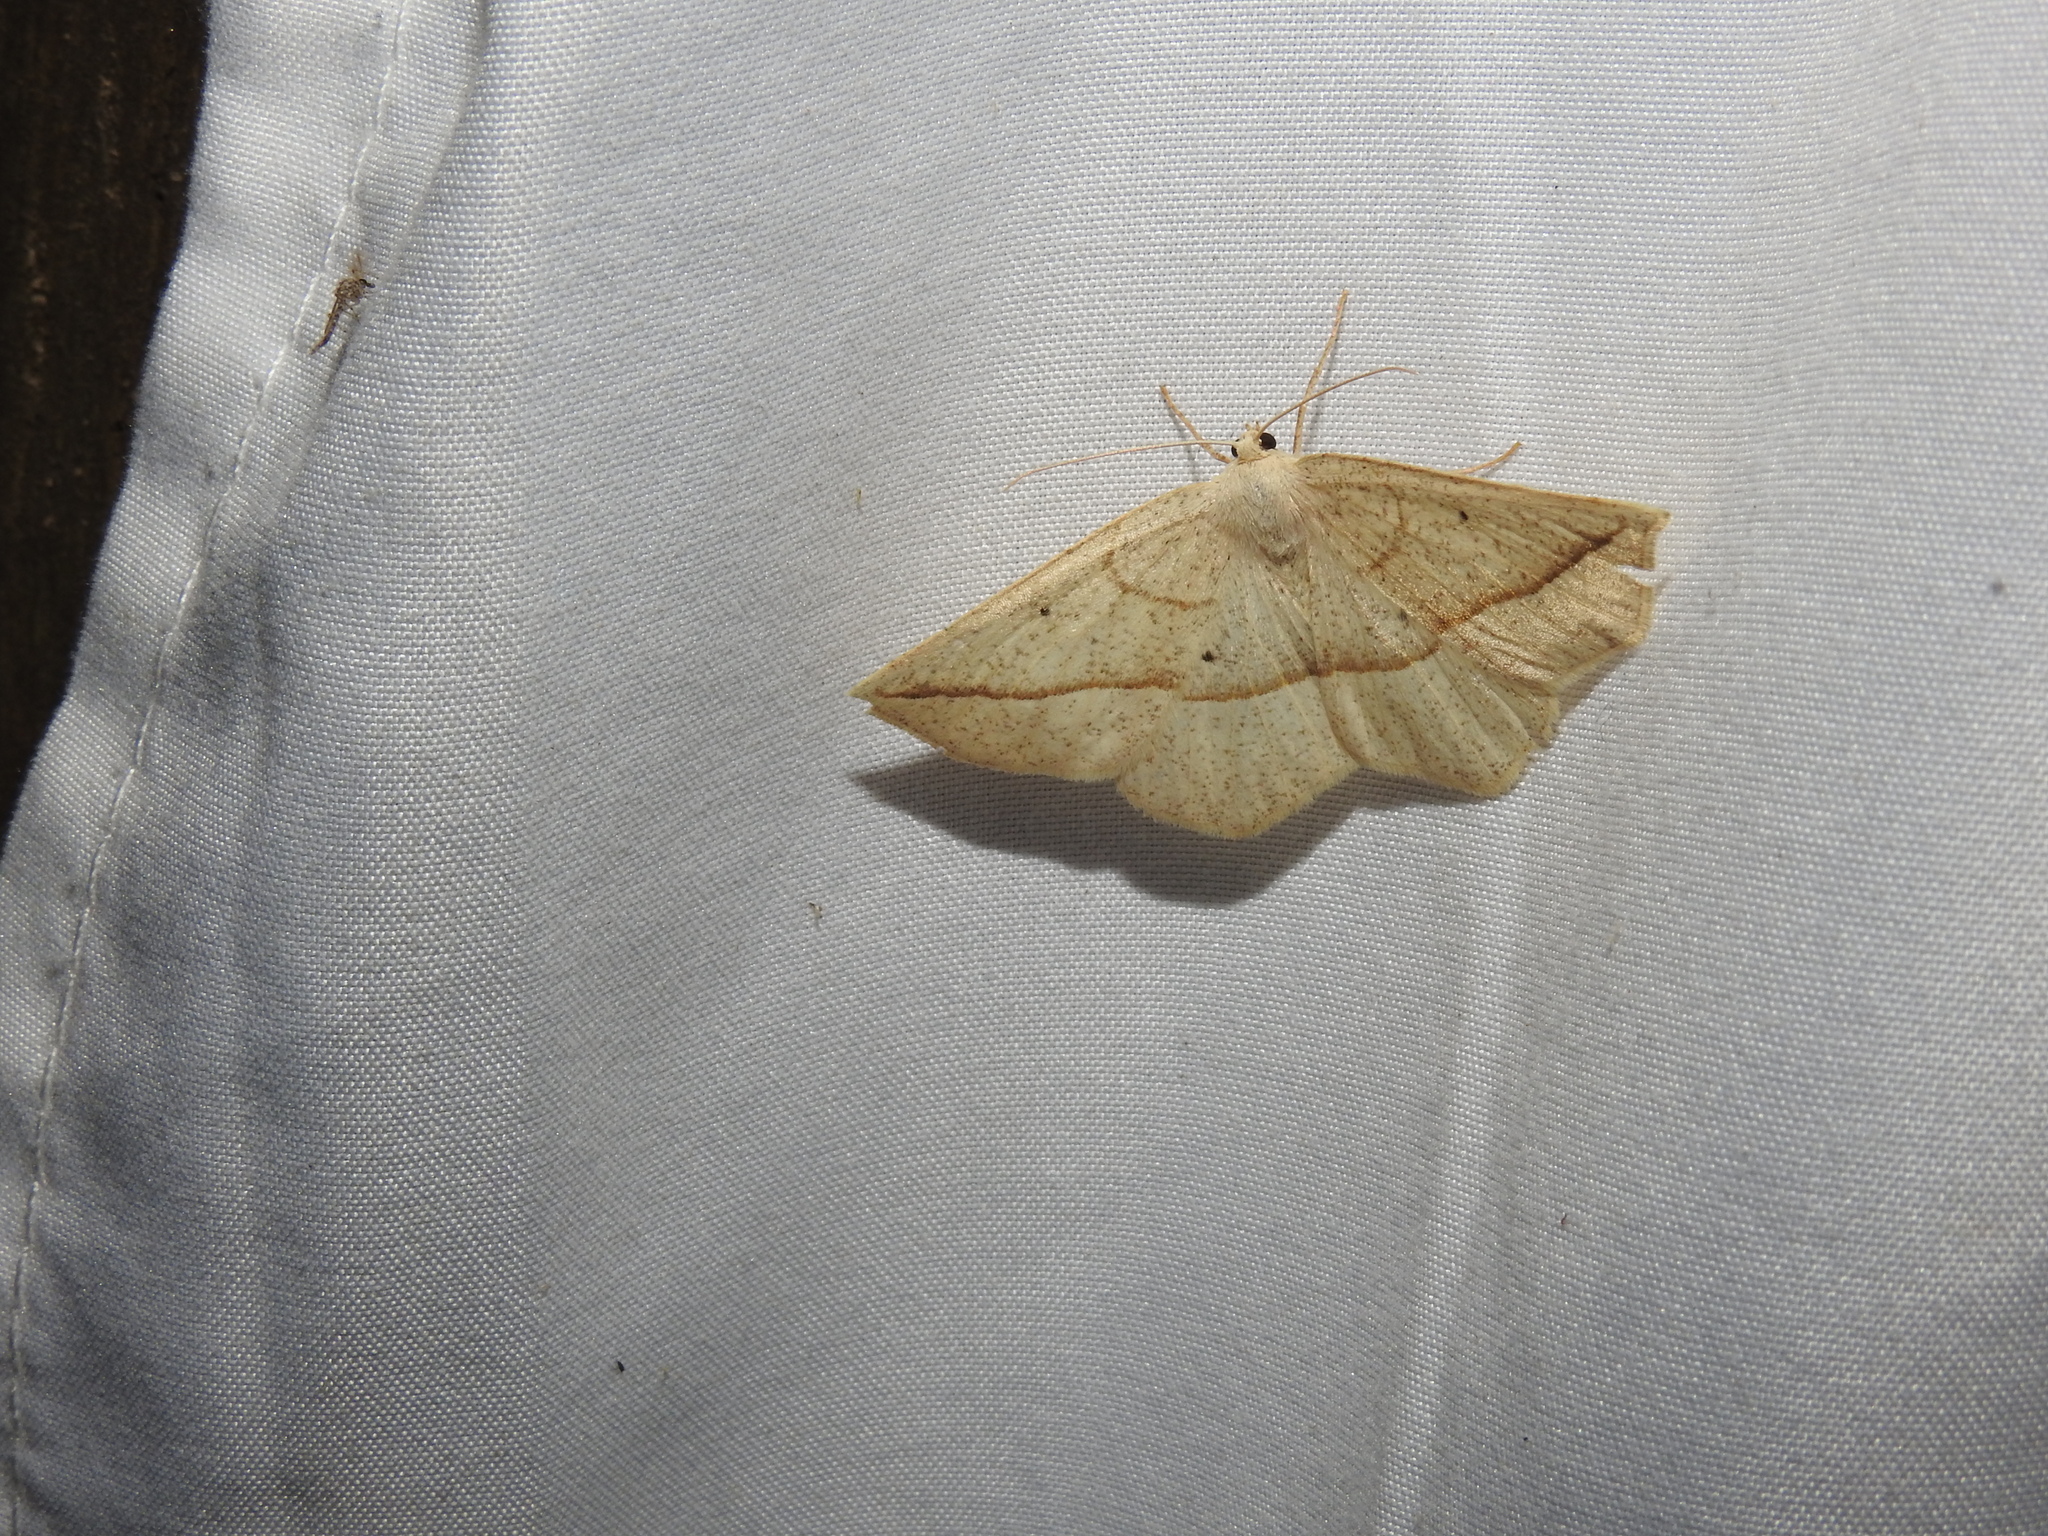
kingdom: Animalia
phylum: Arthropoda
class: Insecta
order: Lepidoptera
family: Geometridae
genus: Eusarca
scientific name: Eusarca confusaria
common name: Confused eusarca
